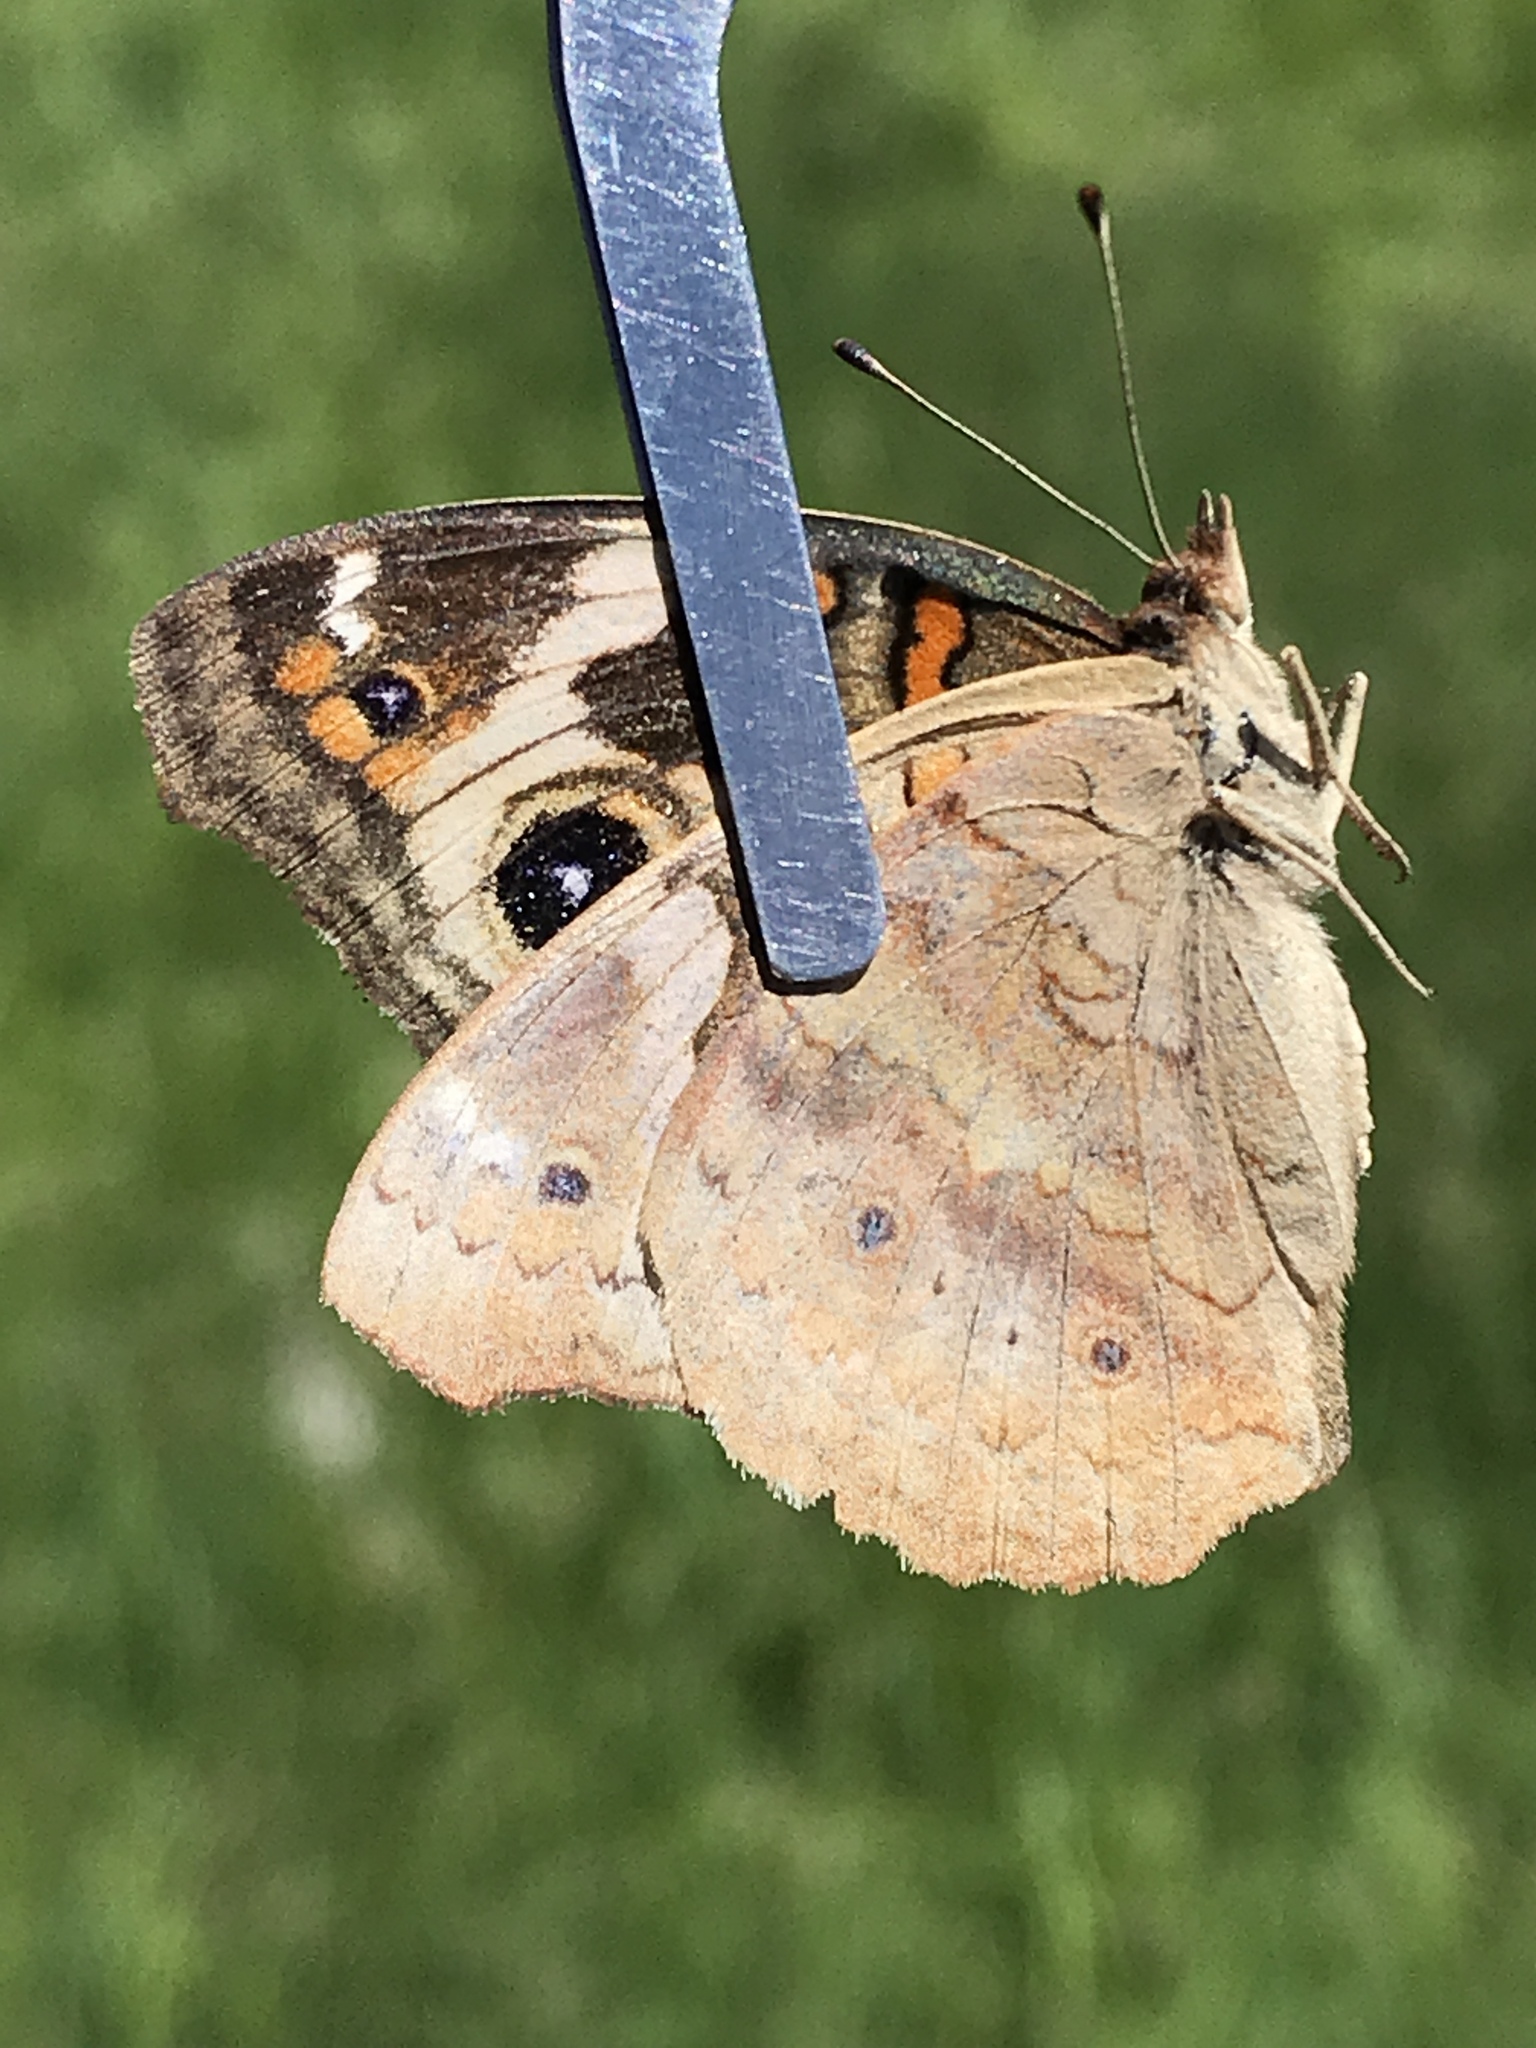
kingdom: Animalia
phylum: Arthropoda
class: Insecta
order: Lepidoptera
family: Nymphalidae
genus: Junonia
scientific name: Junonia grisea
